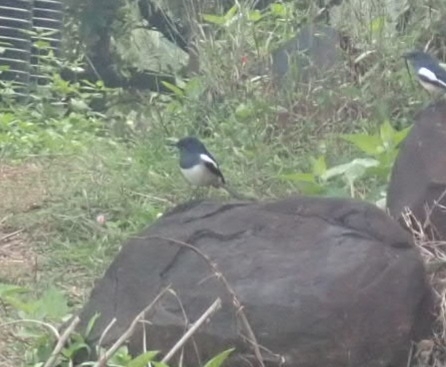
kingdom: Animalia
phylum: Chordata
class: Aves
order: Passeriformes
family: Muscicapidae
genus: Copsychus
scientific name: Copsychus saularis
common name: Oriental magpie-robin
